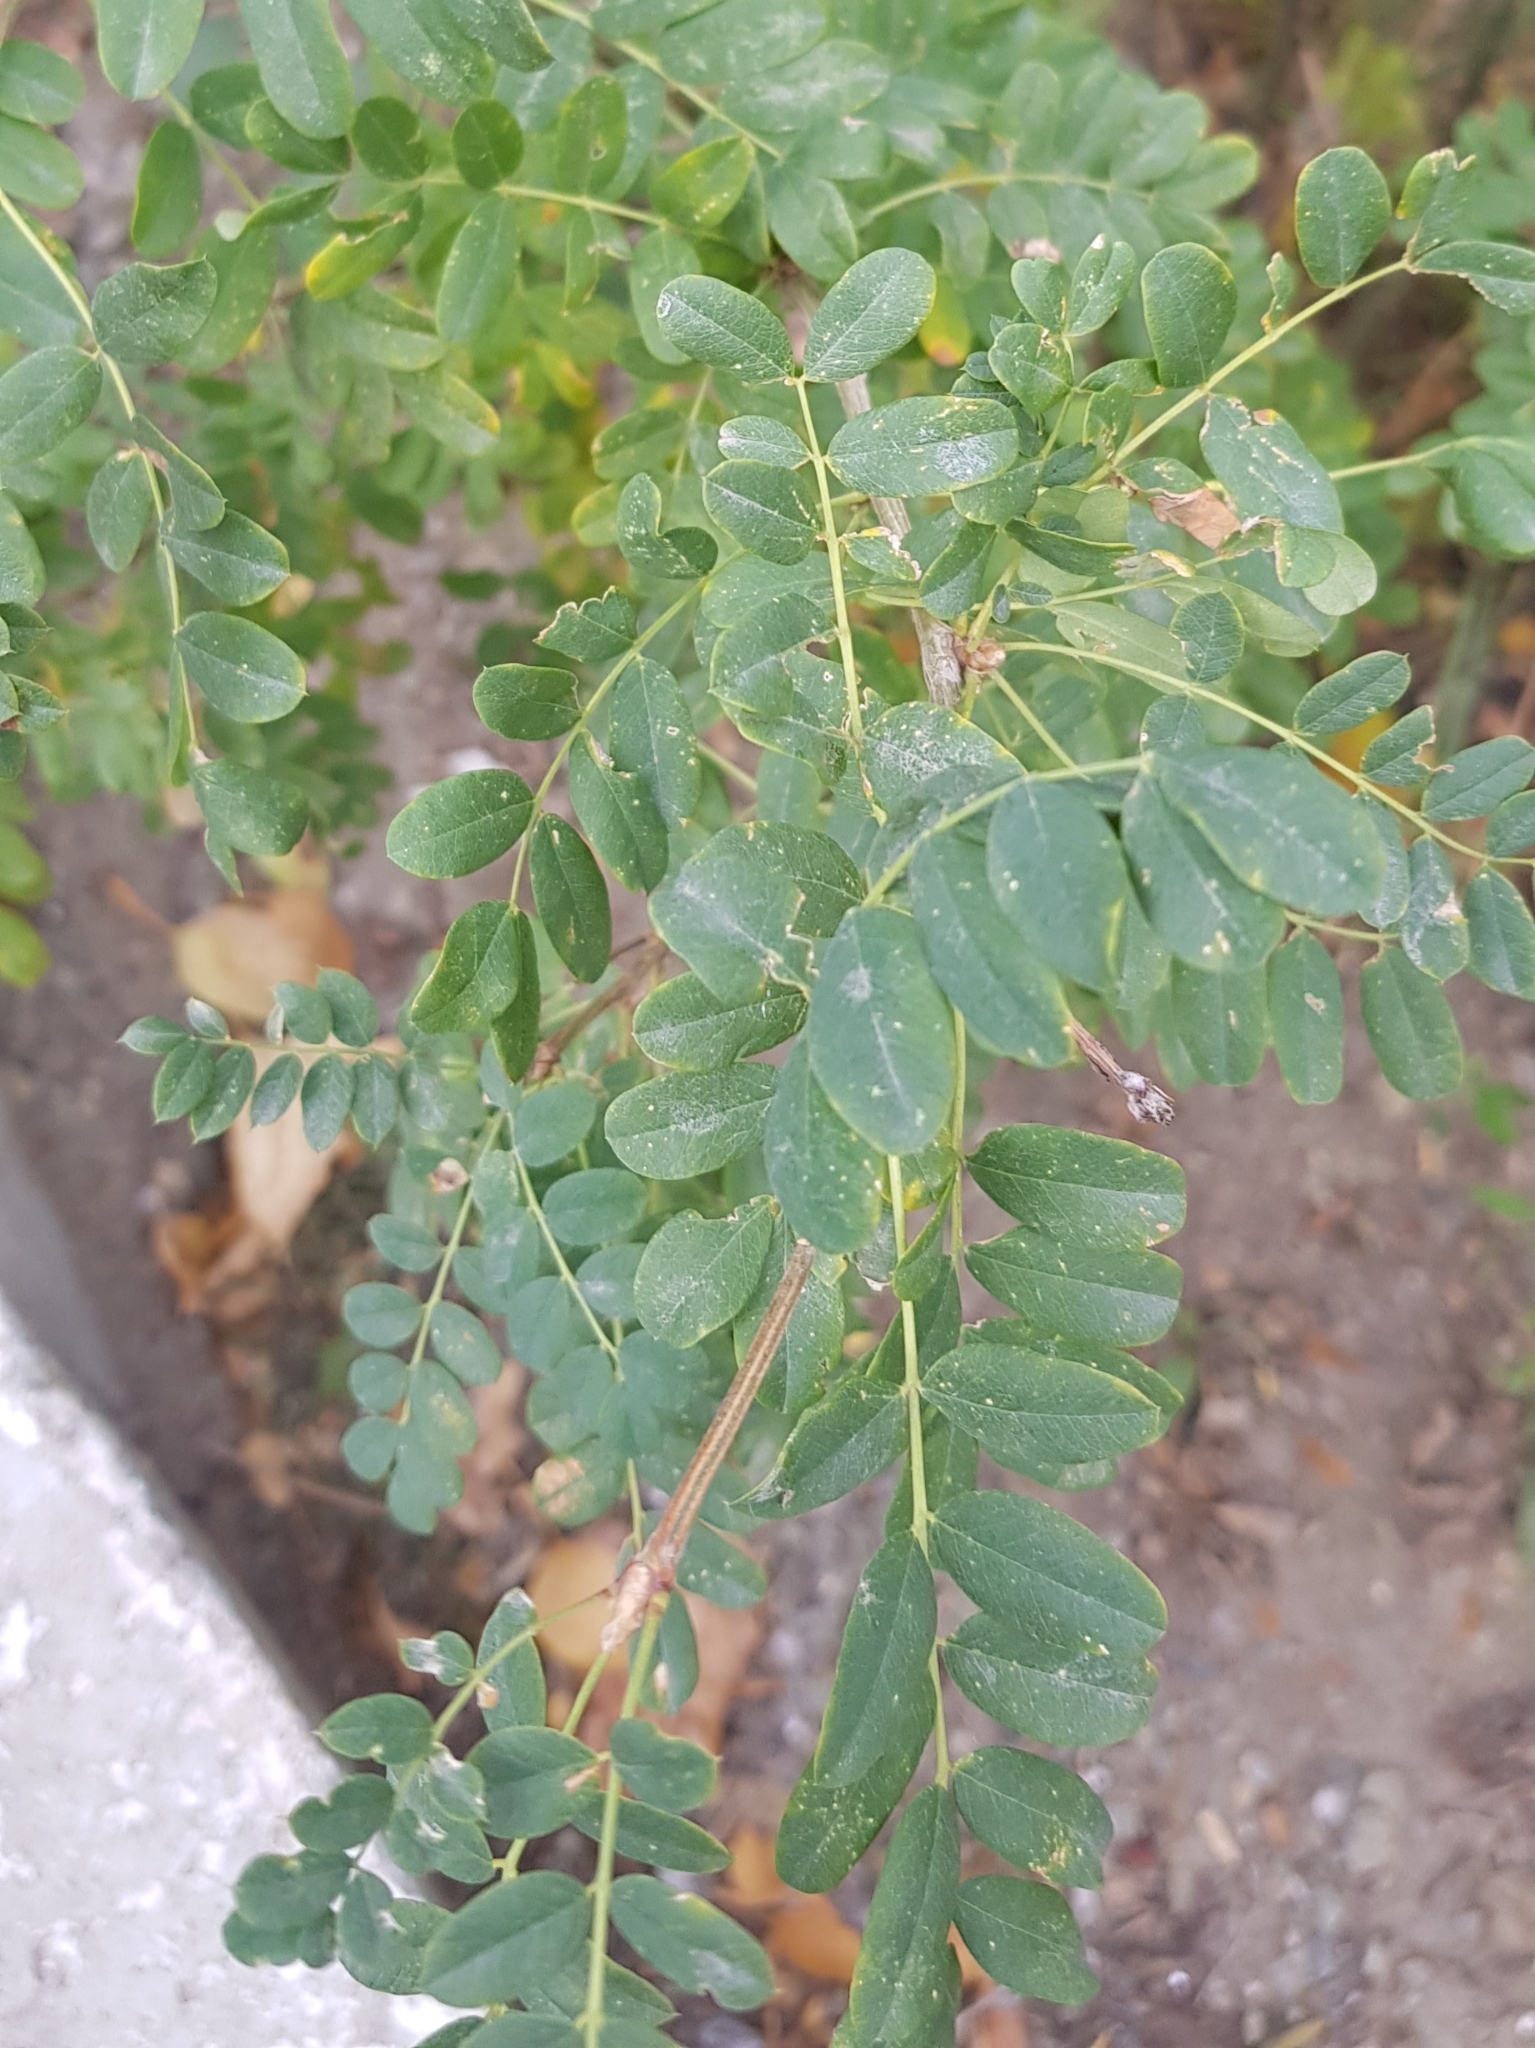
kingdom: Plantae
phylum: Tracheophyta
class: Magnoliopsida
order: Fabales
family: Fabaceae
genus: Caragana
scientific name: Caragana arborescens
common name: Siberian peashrub
